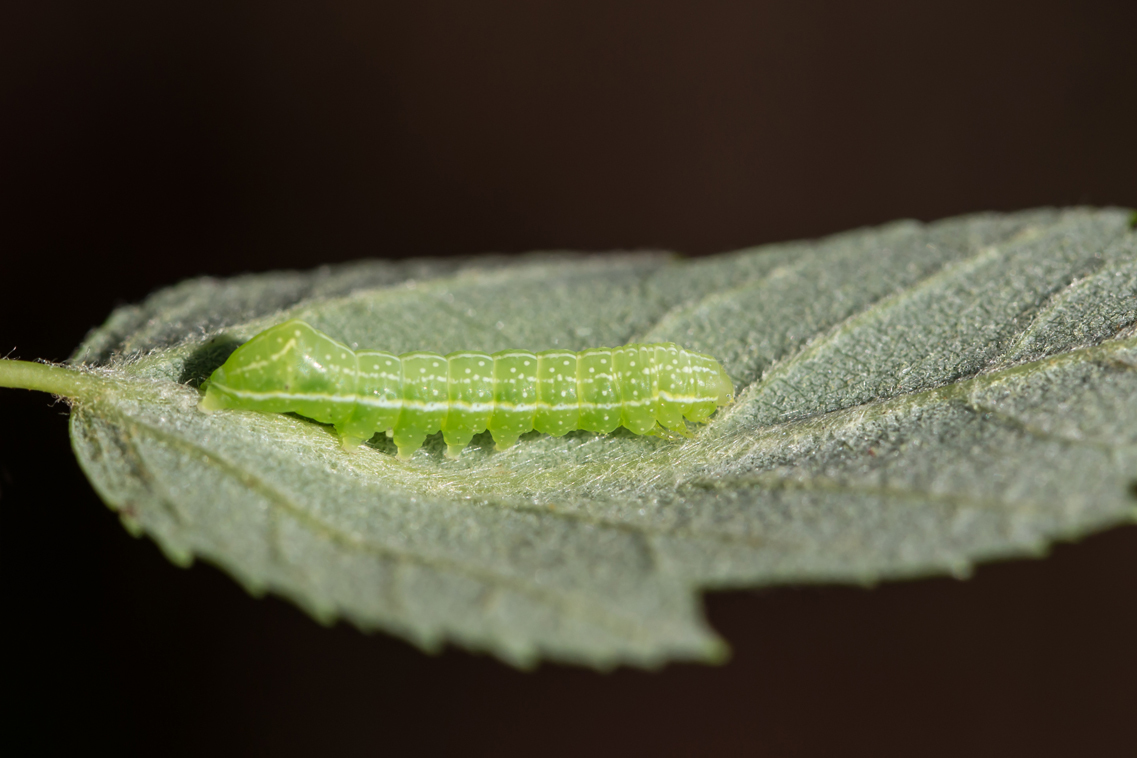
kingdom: Animalia
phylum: Arthropoda
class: Insecta
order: Lepidoptera
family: Noctuidae
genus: Amphipyra
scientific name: Amphipyra pyramidoides
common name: American copper underwing
